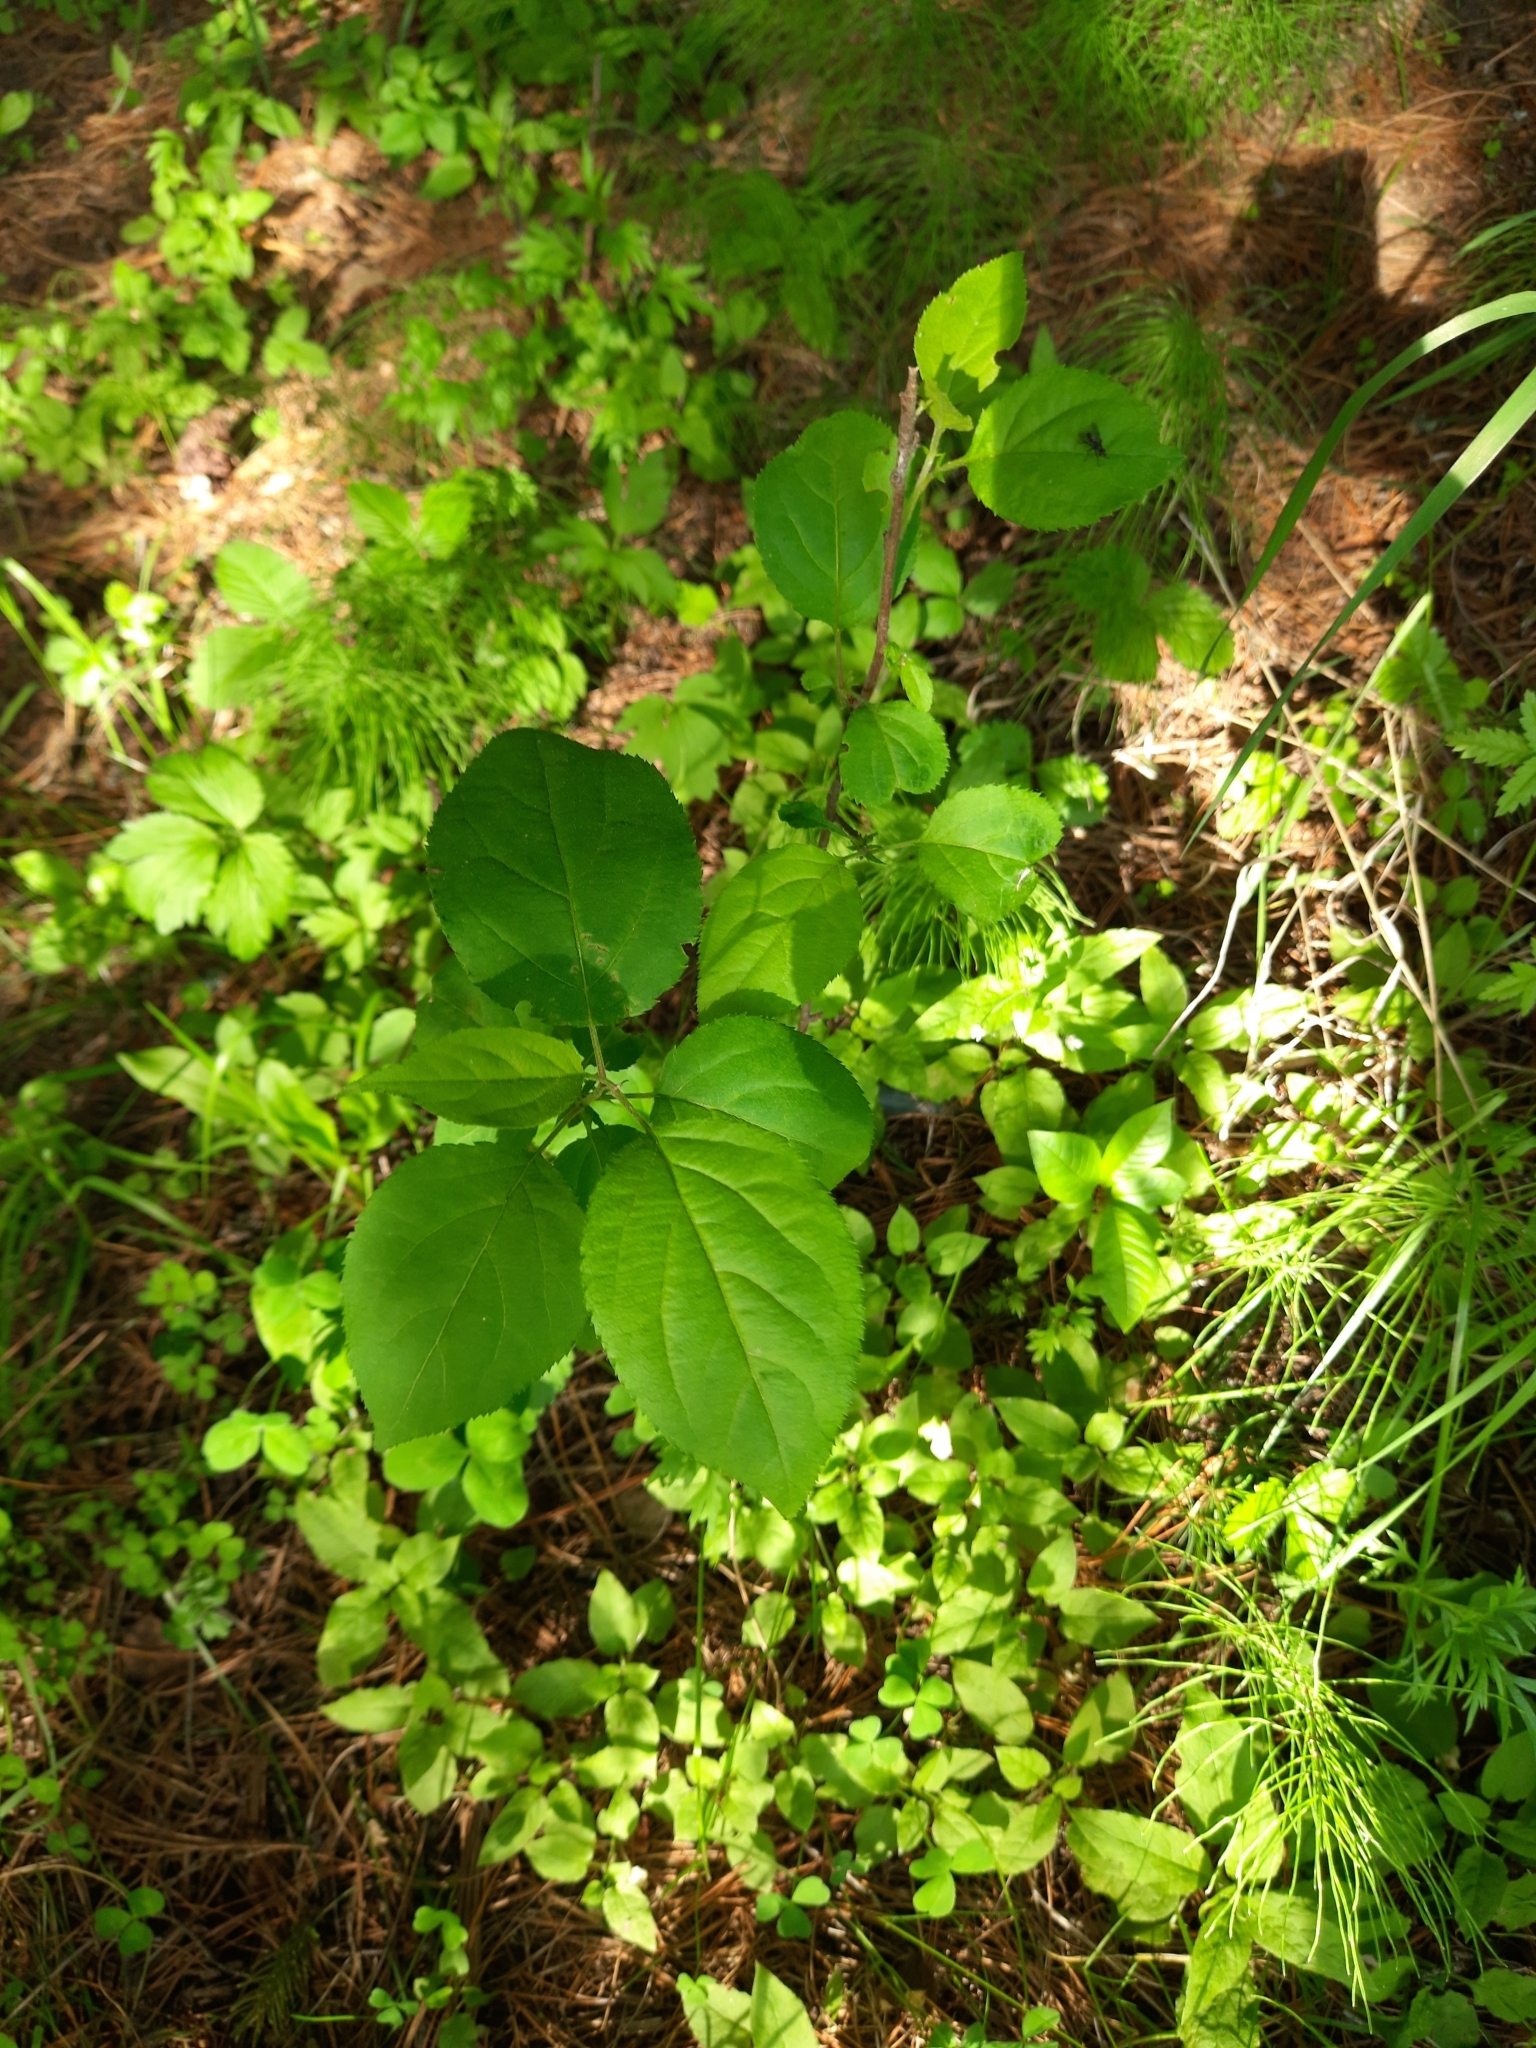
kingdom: Plantae
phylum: Tracheophyta
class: Magnoliopsida
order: Rosales
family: Rosaceae
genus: Malus
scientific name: Malus baccata
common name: Siberian crab
